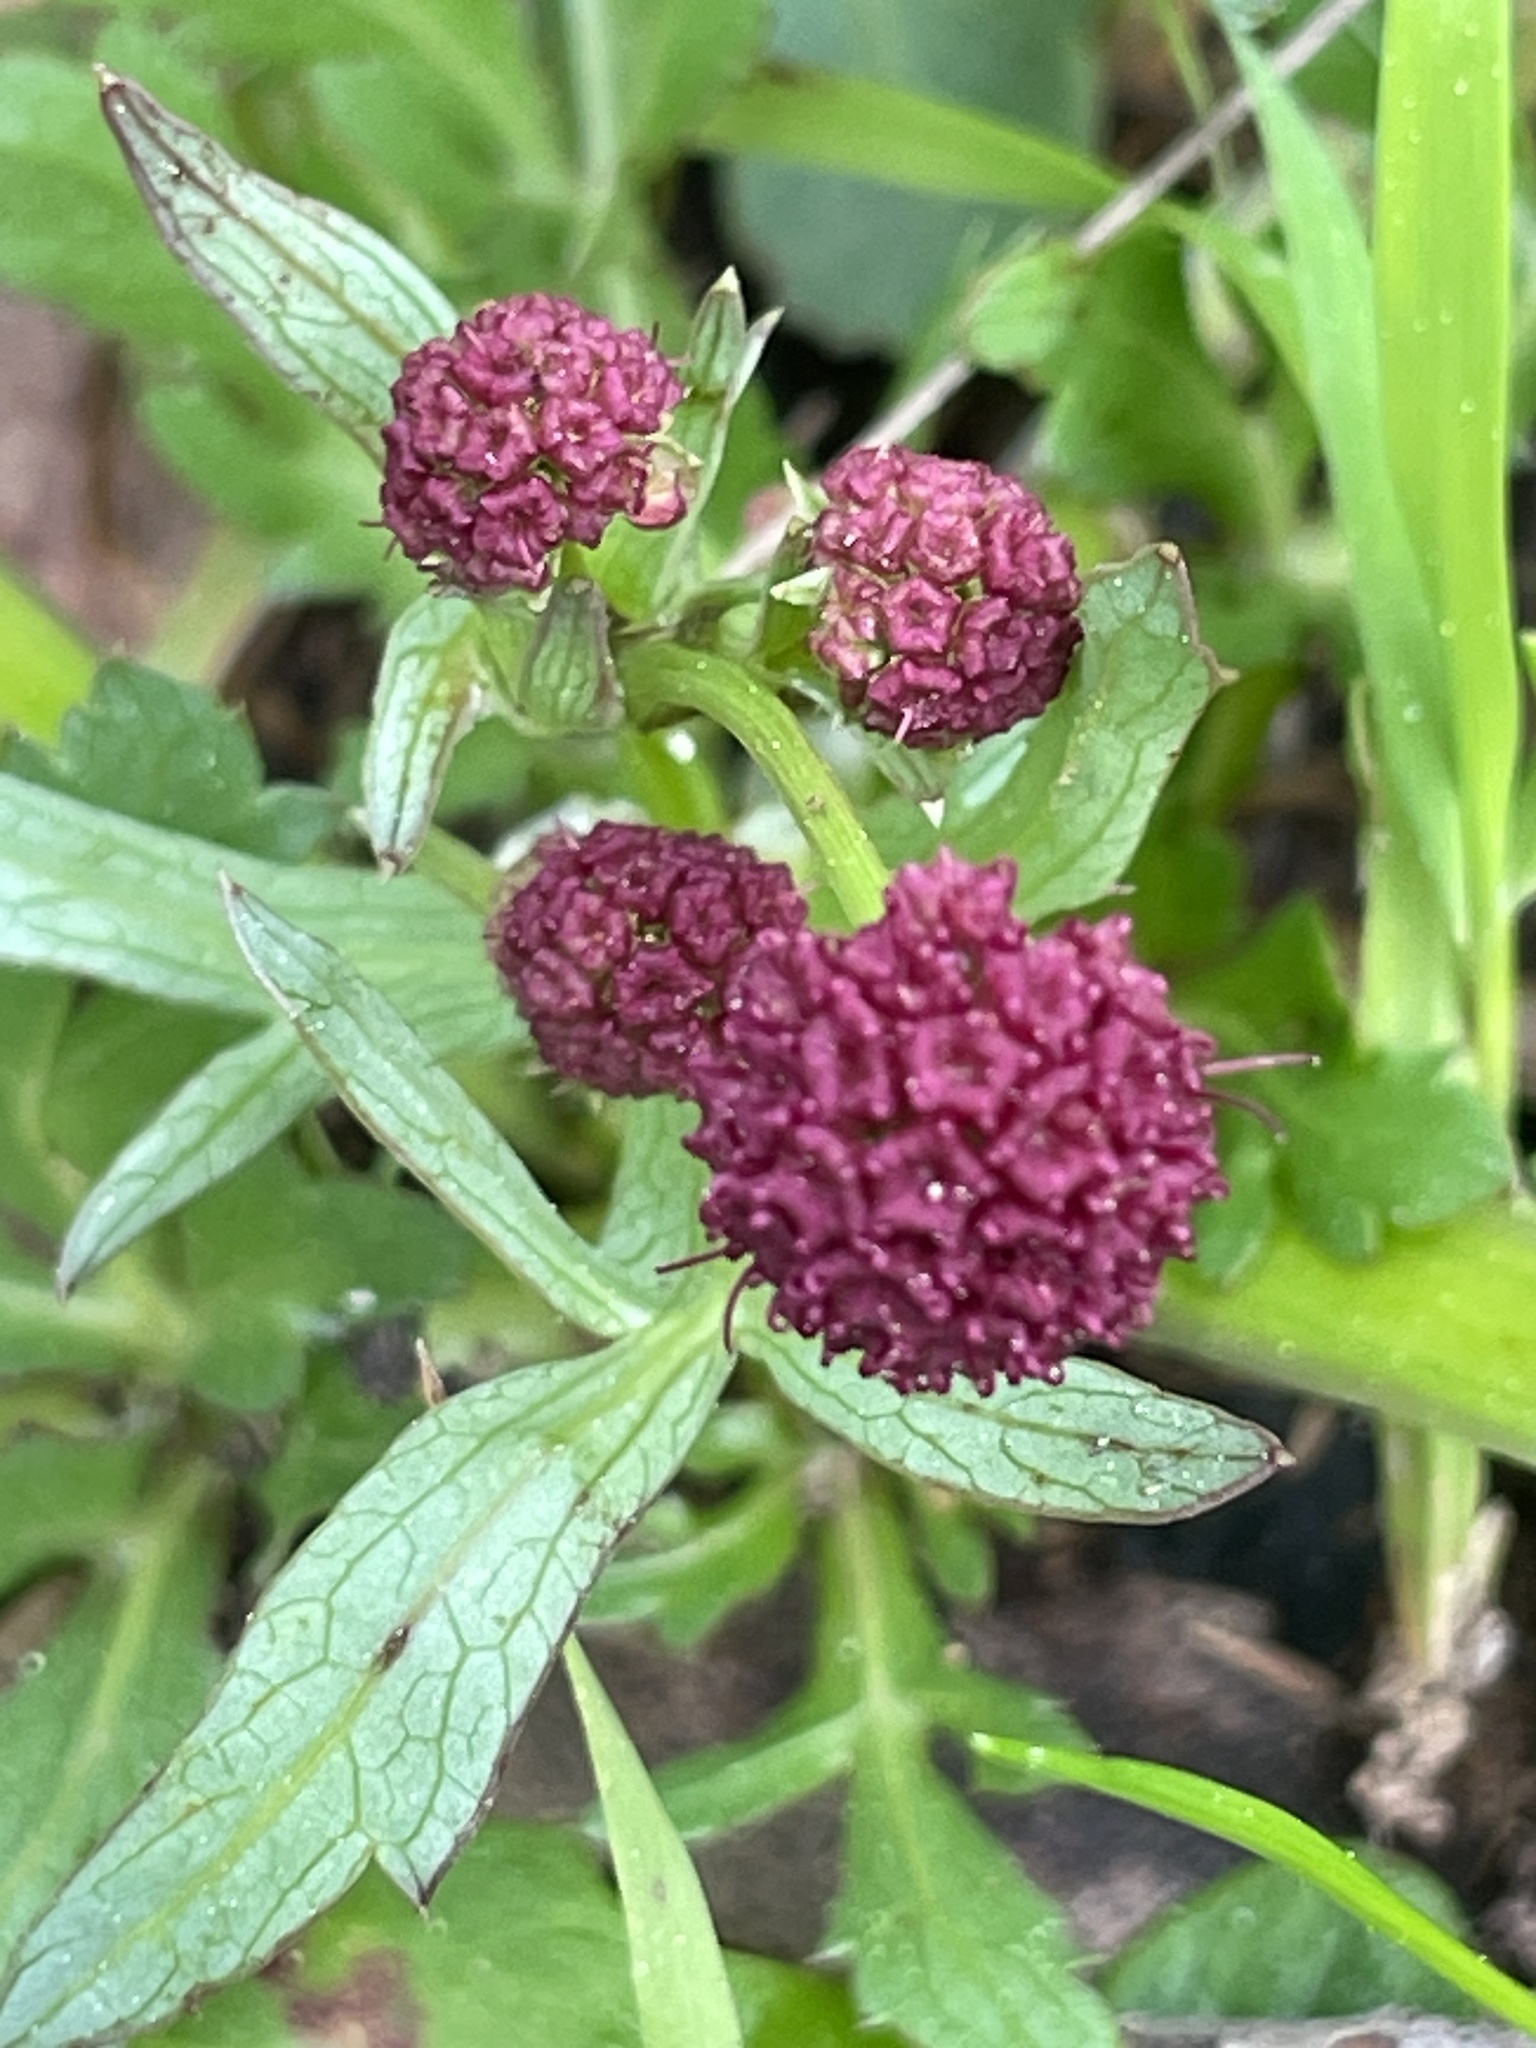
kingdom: Plantae
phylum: Tracheophyta
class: Magnoliopsida
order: Apiales
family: Apiaceae
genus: Sanicula
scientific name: Sanicula bipinnatifida
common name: Shoe-buttons
